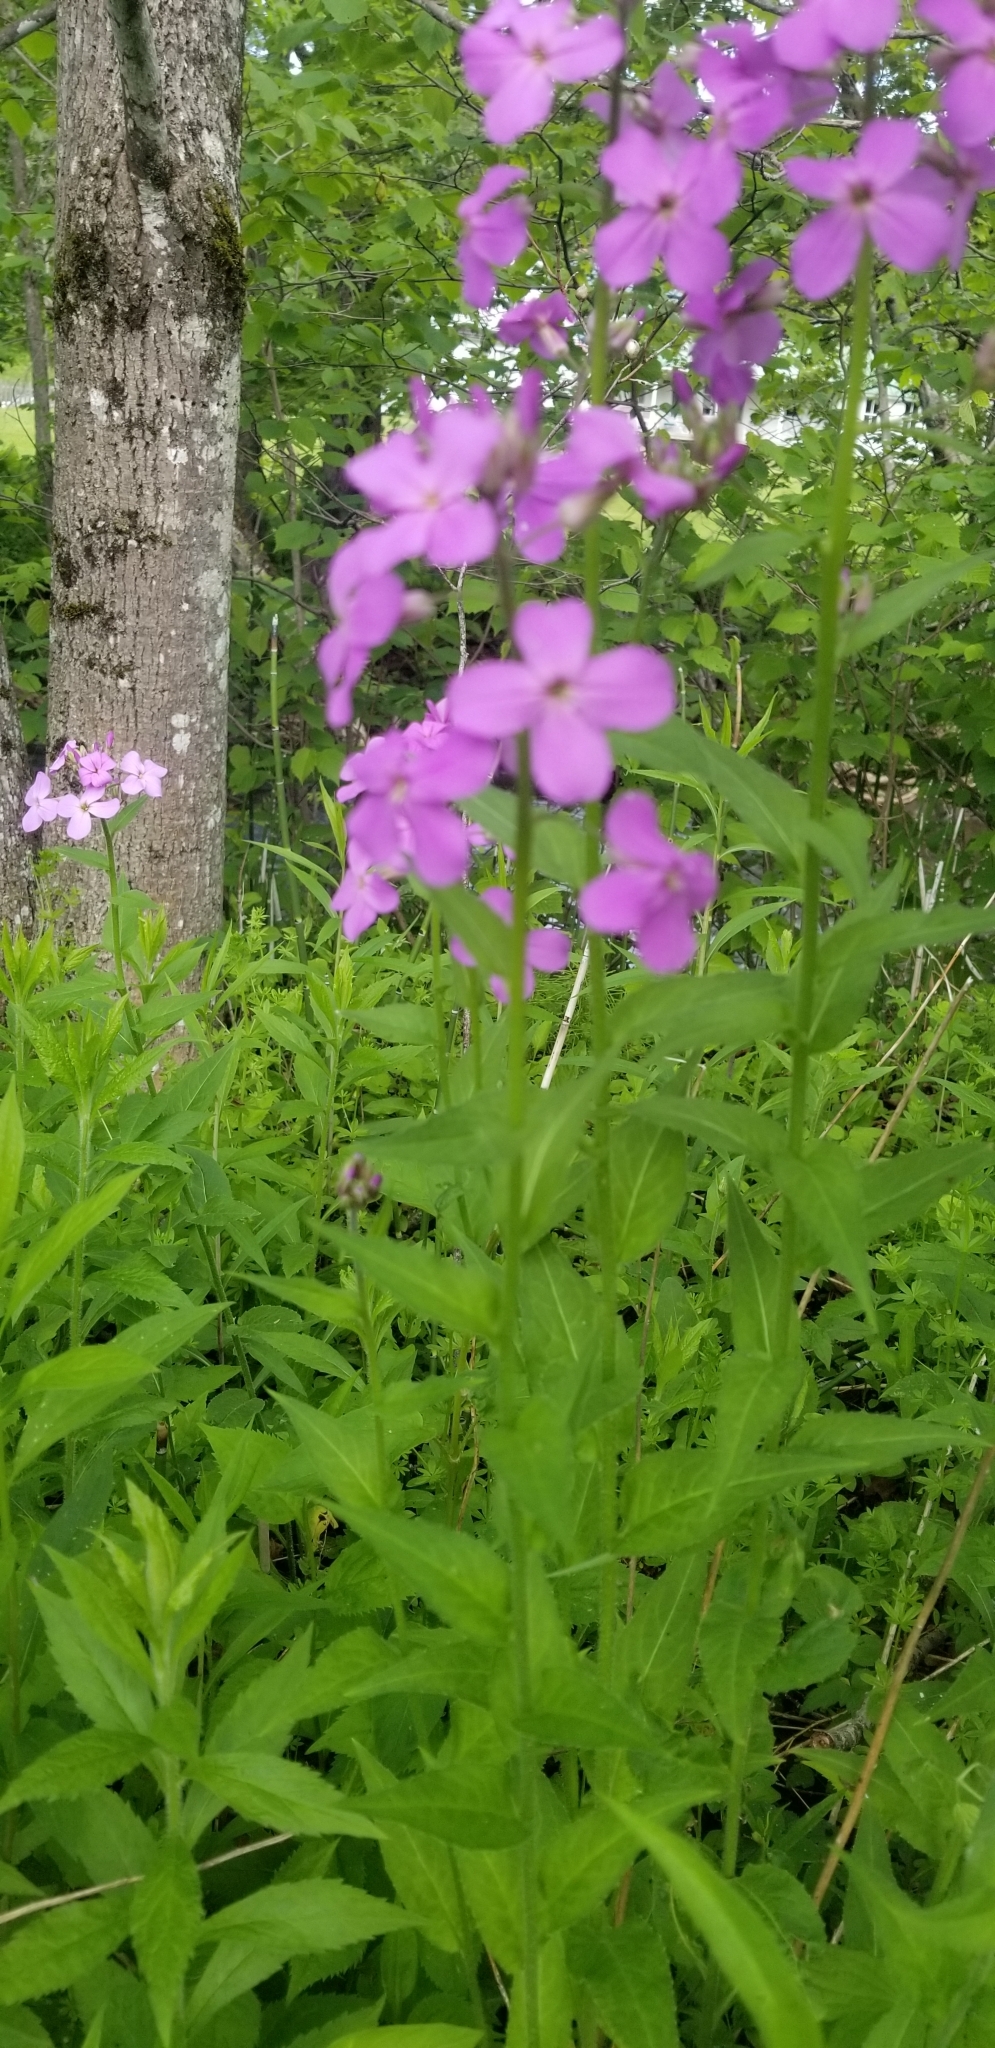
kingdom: Plantae
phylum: Tracheophyta
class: Magnoliopsida
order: Brassicales
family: Brassicaceae
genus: Hesperis
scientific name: Hesperis matronalis
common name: Dame's-violet
